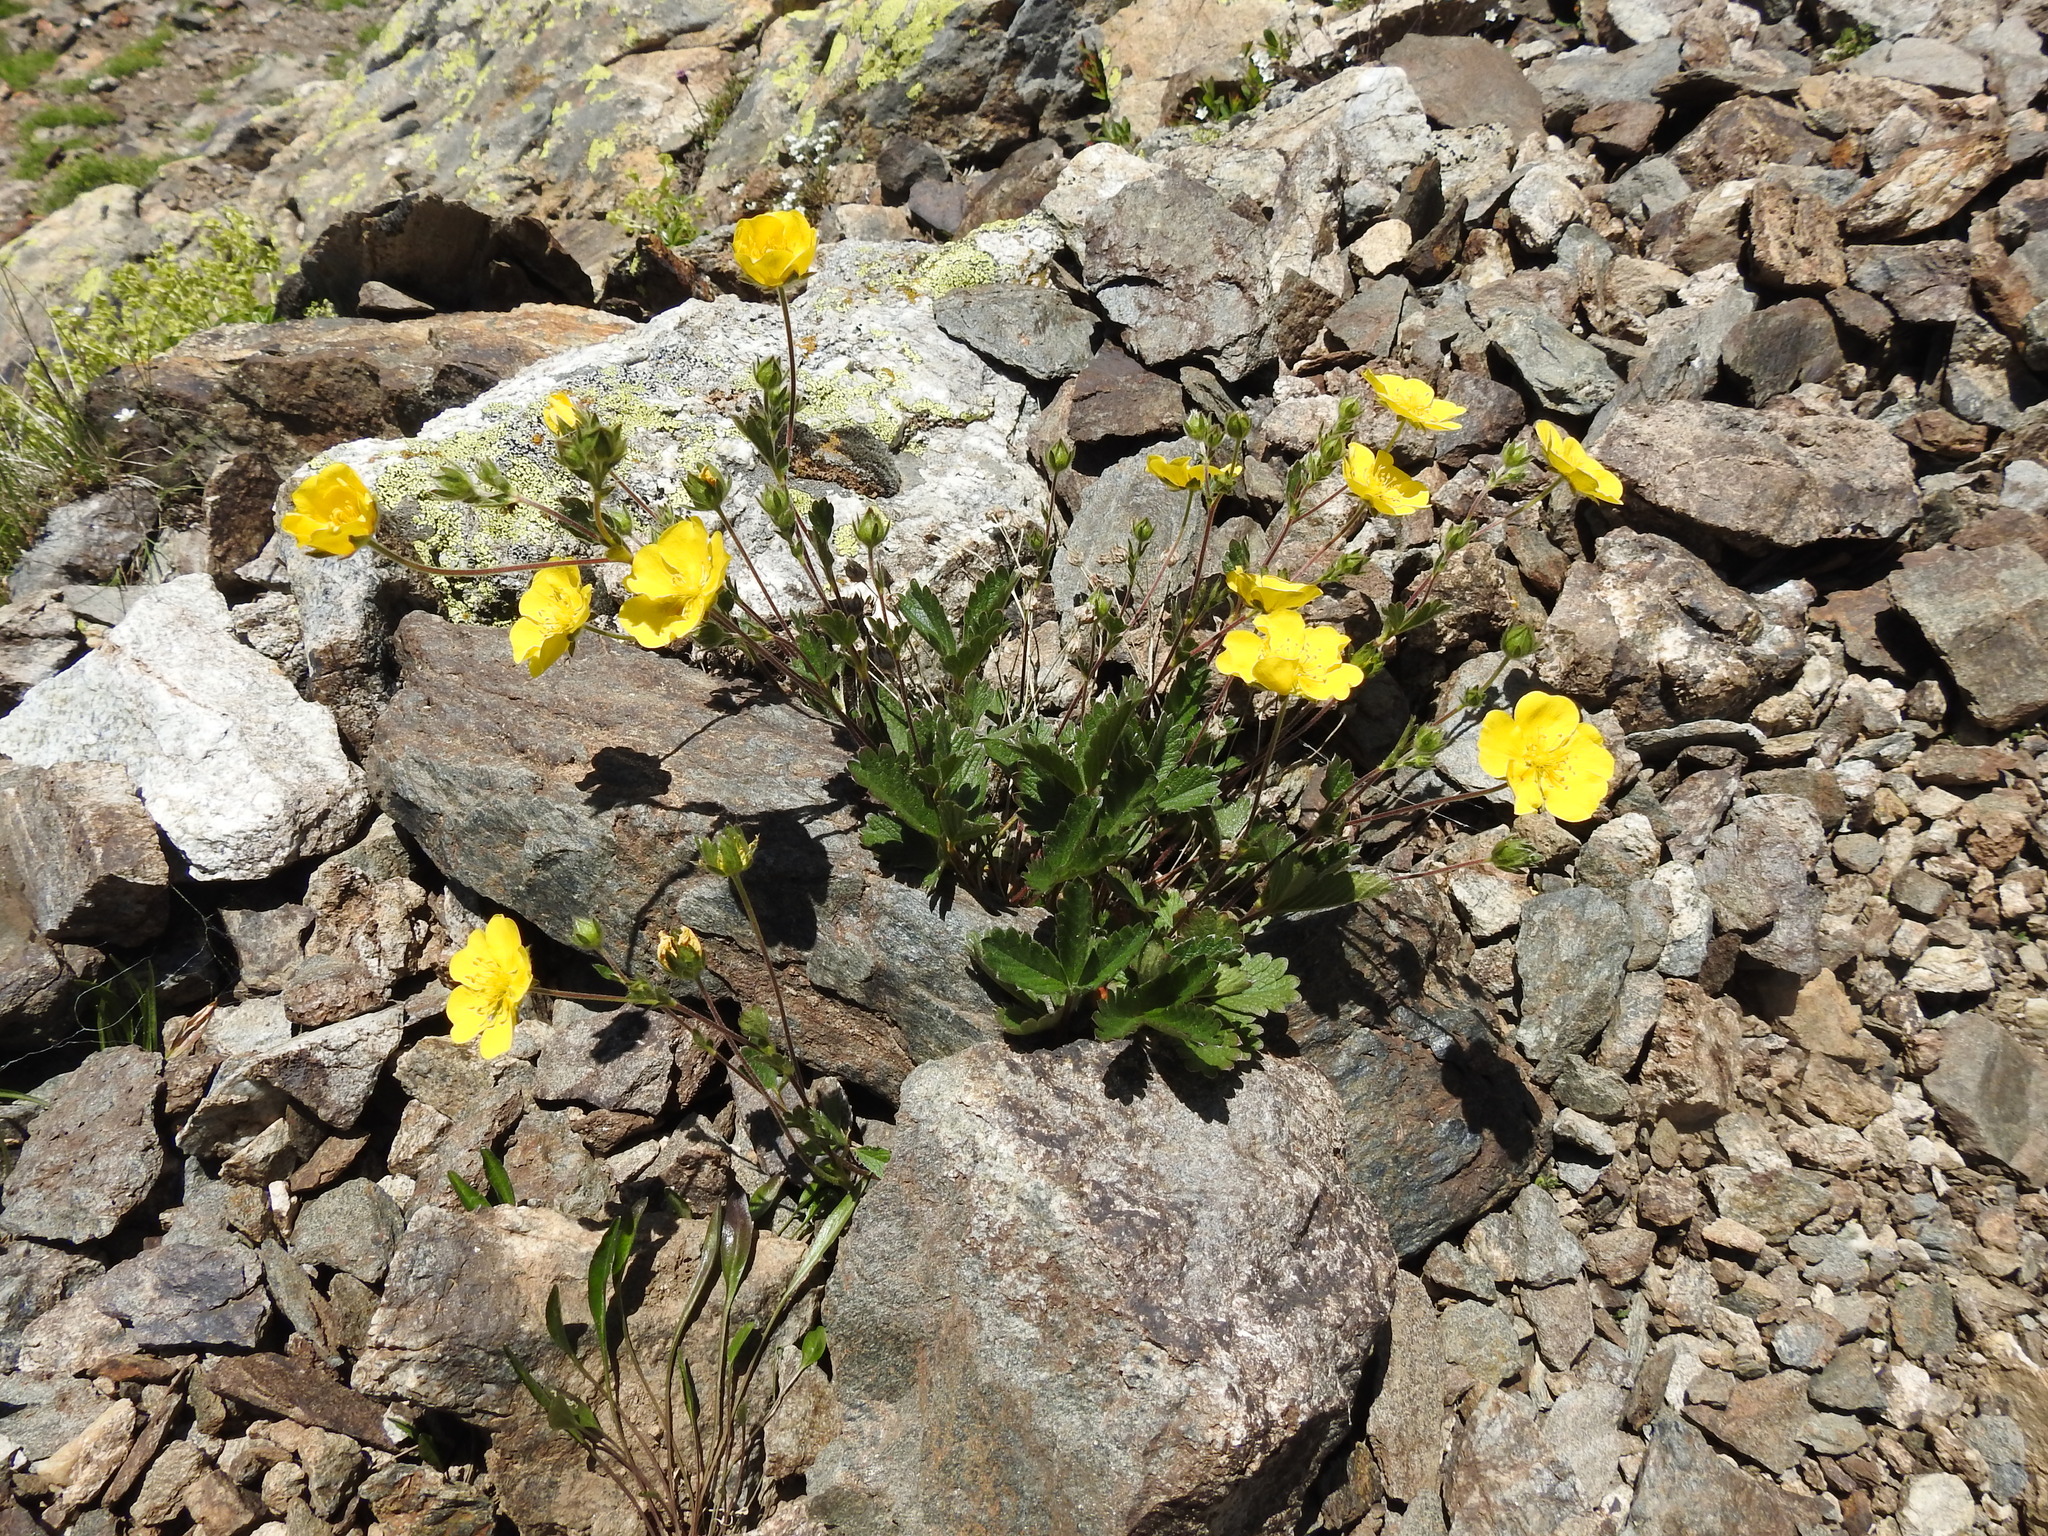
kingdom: Plantae
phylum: Tracheophyta
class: Magnoliopsida
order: Rosales
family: Rosaceae
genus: Potentilla
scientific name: Potentilla grandiflora
